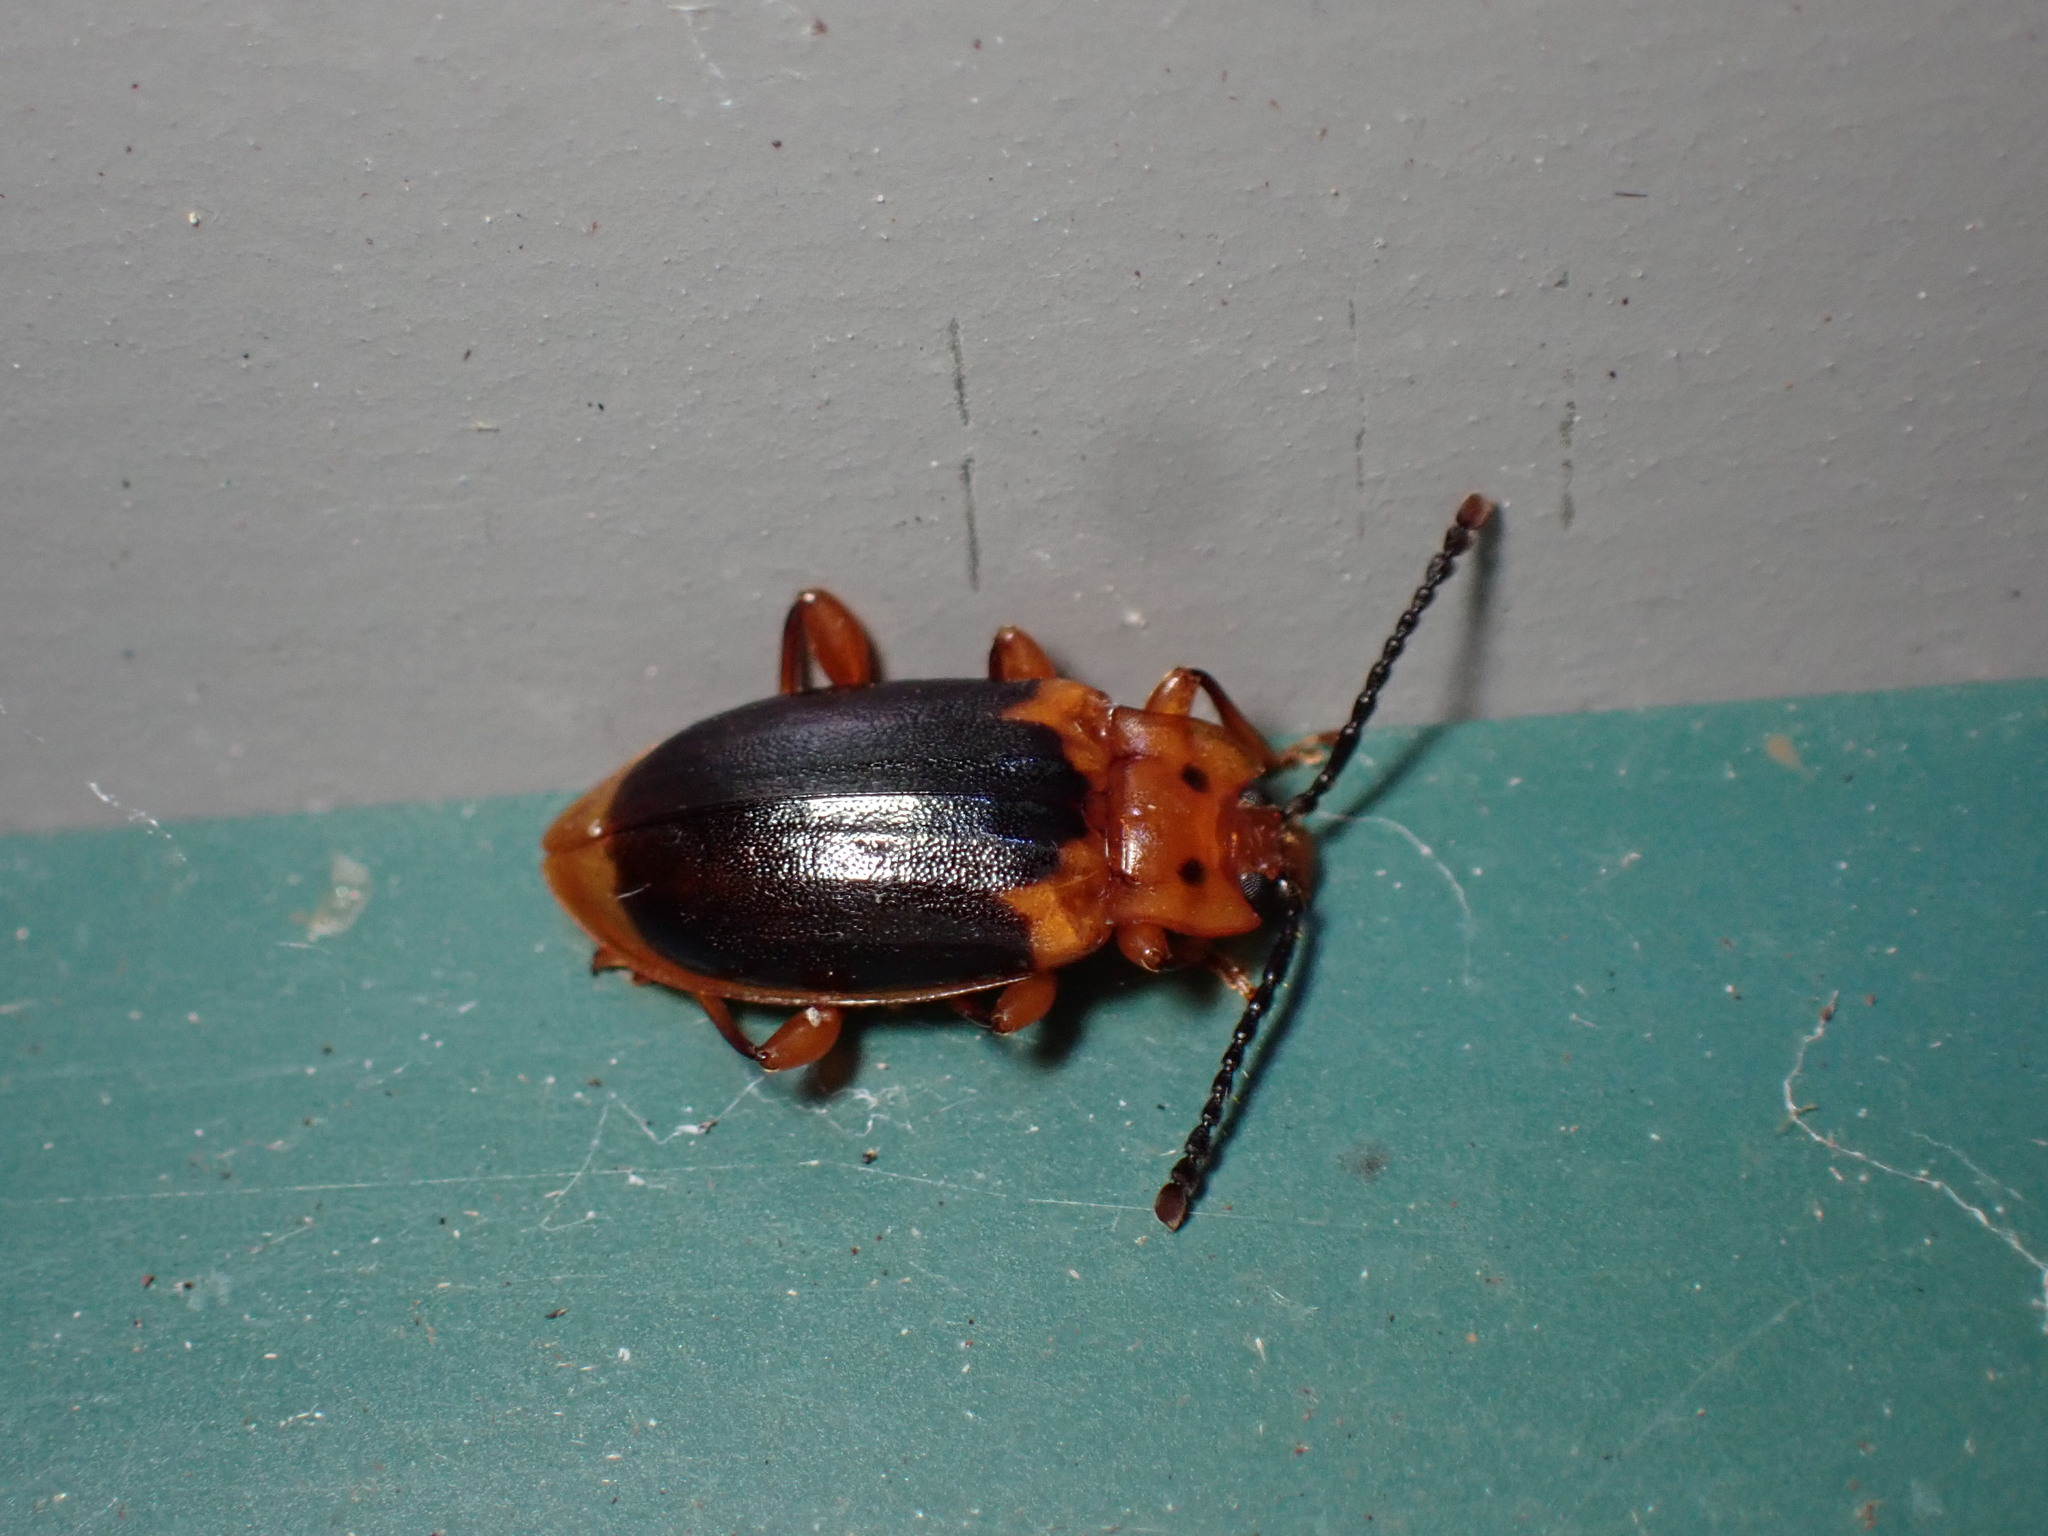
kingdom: Animalia
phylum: Arthropoda
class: Insecta
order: Coleoptera
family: Endomychidae
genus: Aphorista
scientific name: Aphorista laeta
